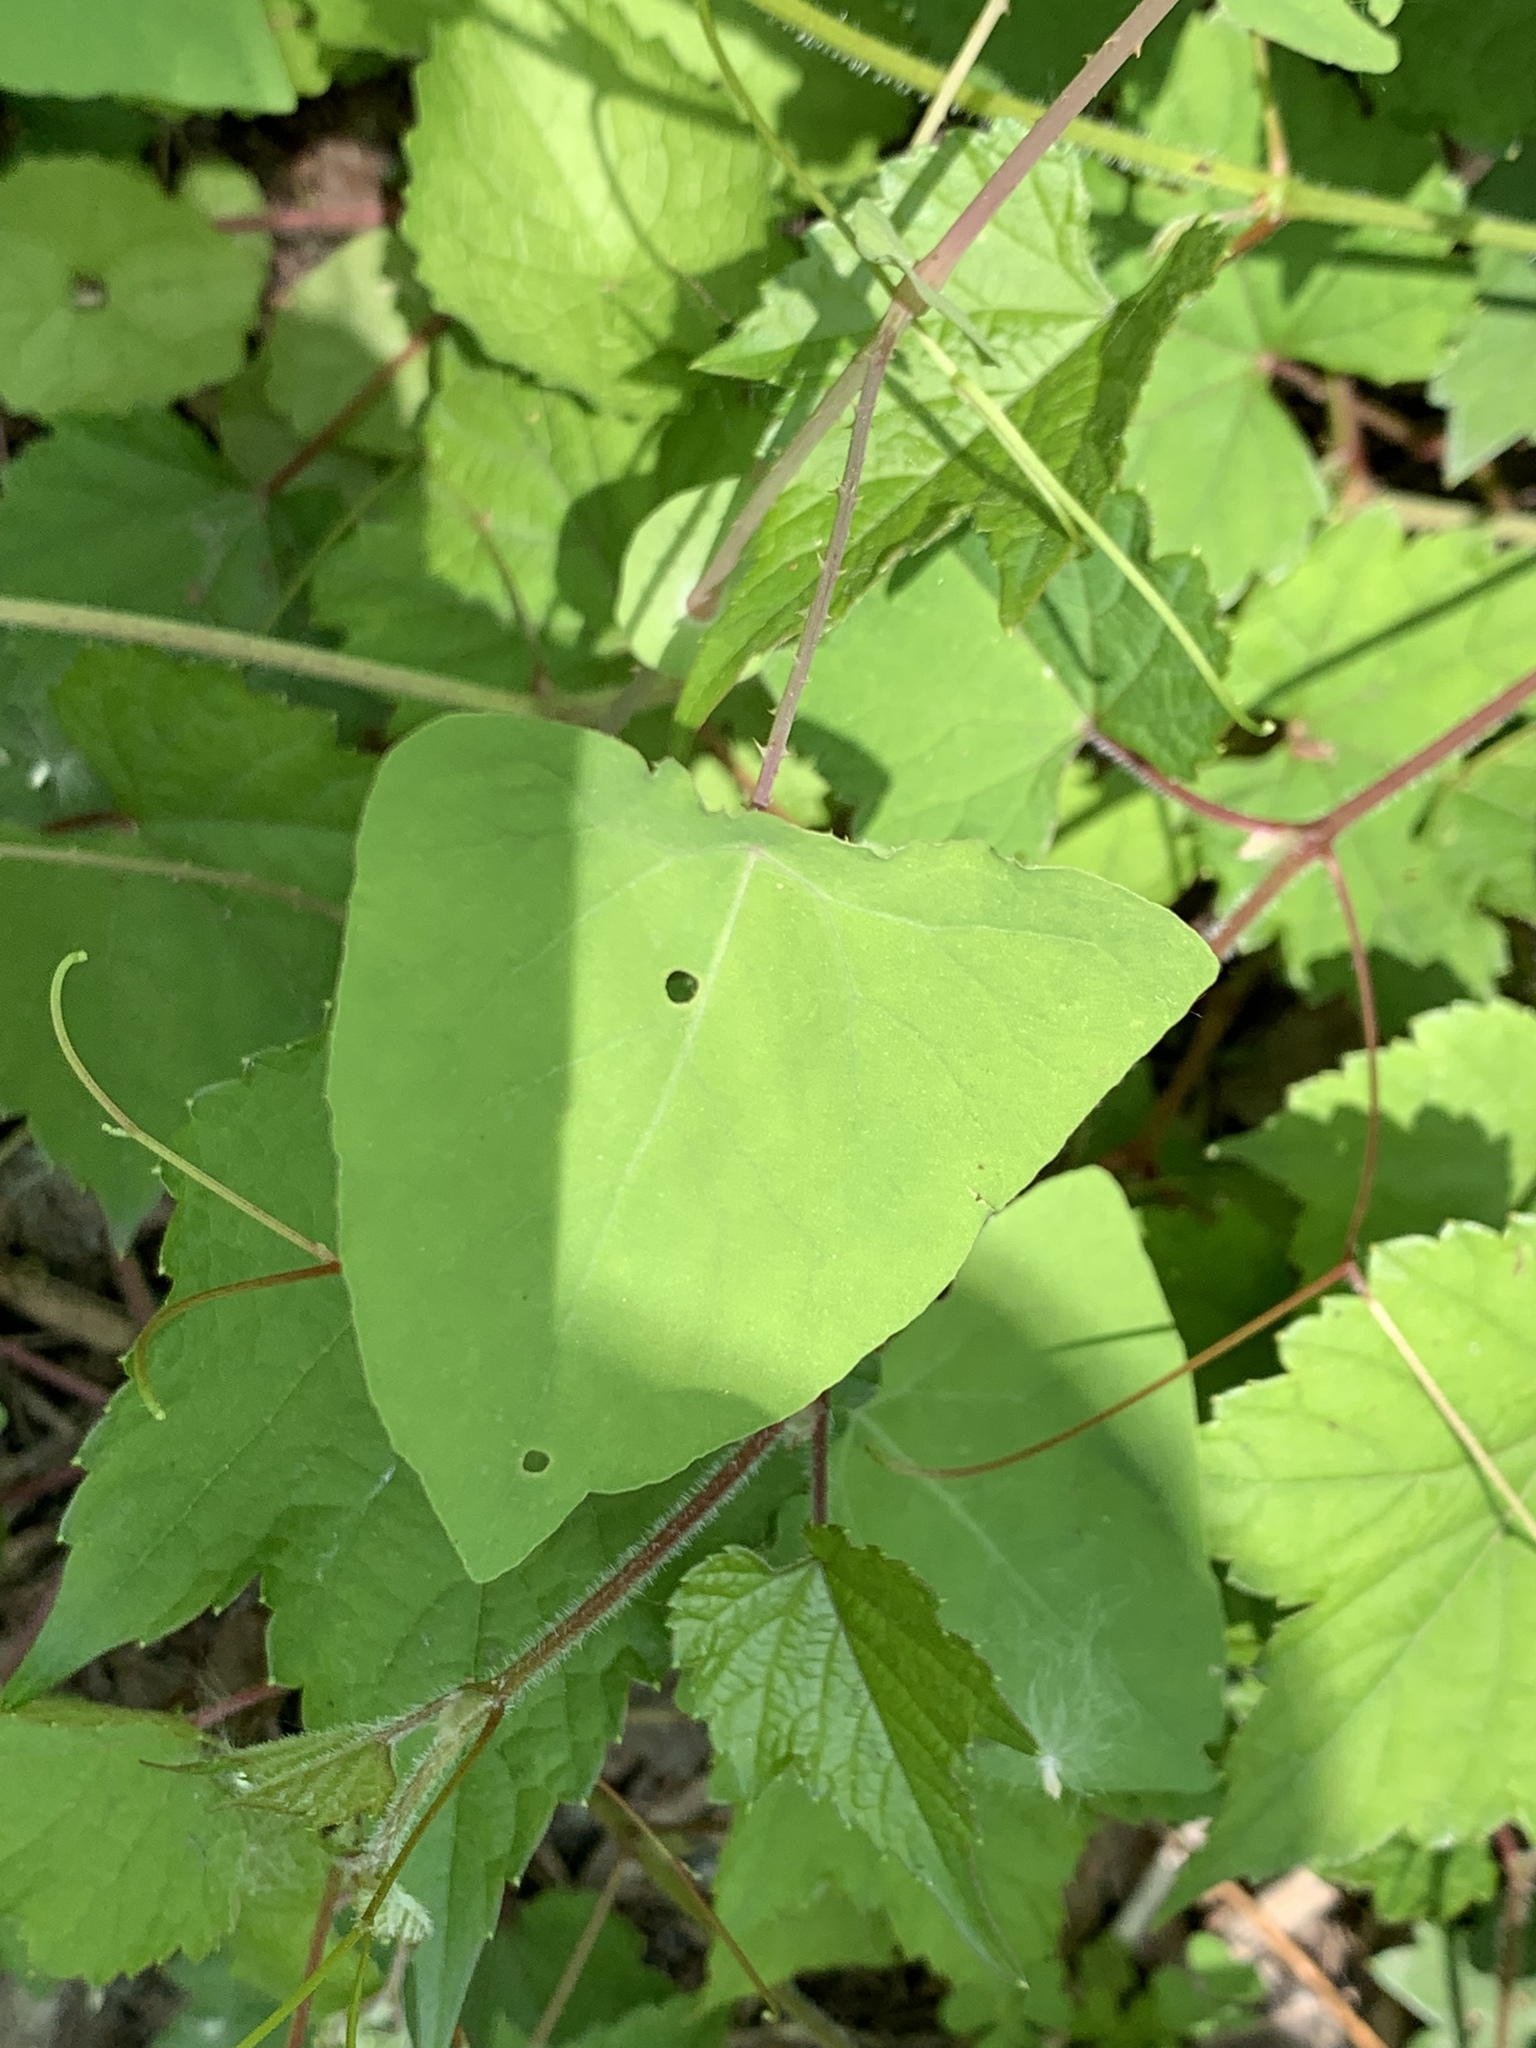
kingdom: Plantae
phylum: Tracheophyta
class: Magnoliopsida
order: Caryophyllales
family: Polygonaceae
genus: Persicaria
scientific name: Persicaria perfoliata
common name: Asiatic tearthumb
